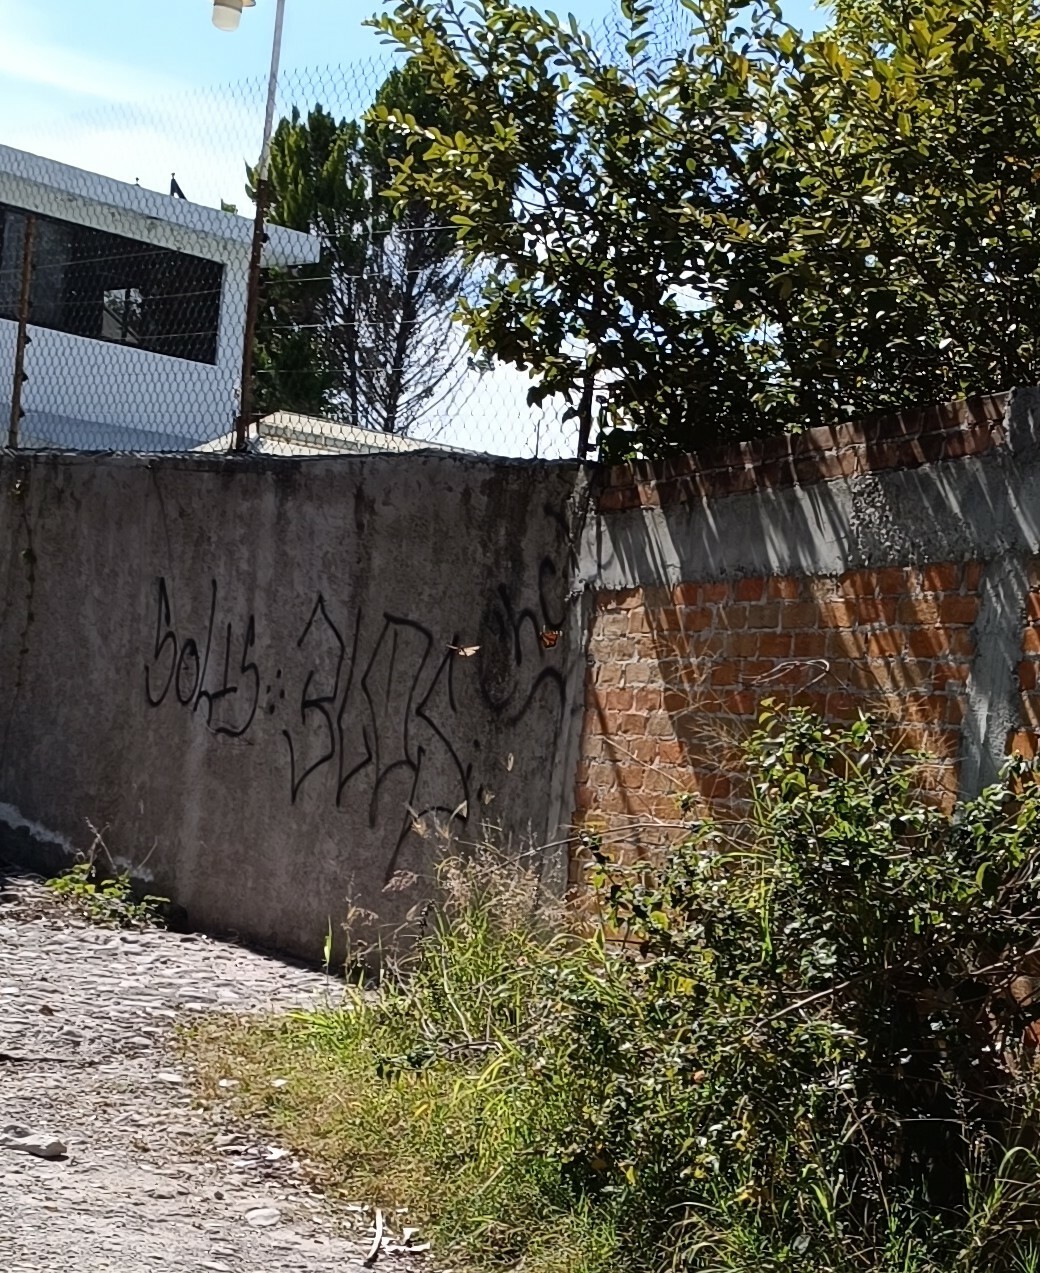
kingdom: Animalia
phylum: Arthropoda
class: Insecta
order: Lepidoptera
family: Nymphalidae
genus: Danaus
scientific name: Danaus plexippus
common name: Monarch
